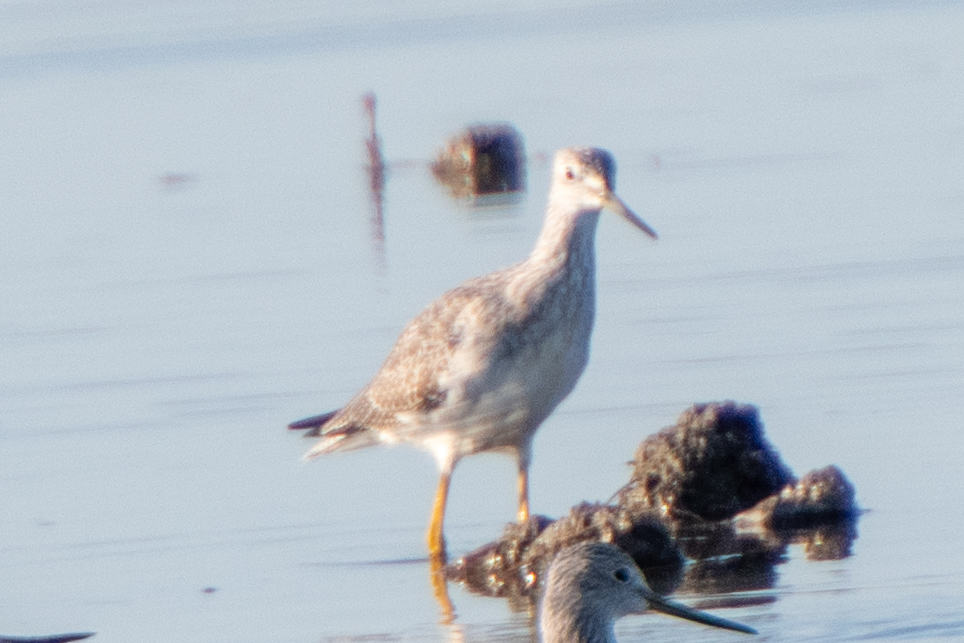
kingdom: Animalia
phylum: Chordata
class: Aves
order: Charadriiformes
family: Scolopacidae
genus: Tringa
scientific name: Tringa melanoleuca
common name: Greater yellowlegs
